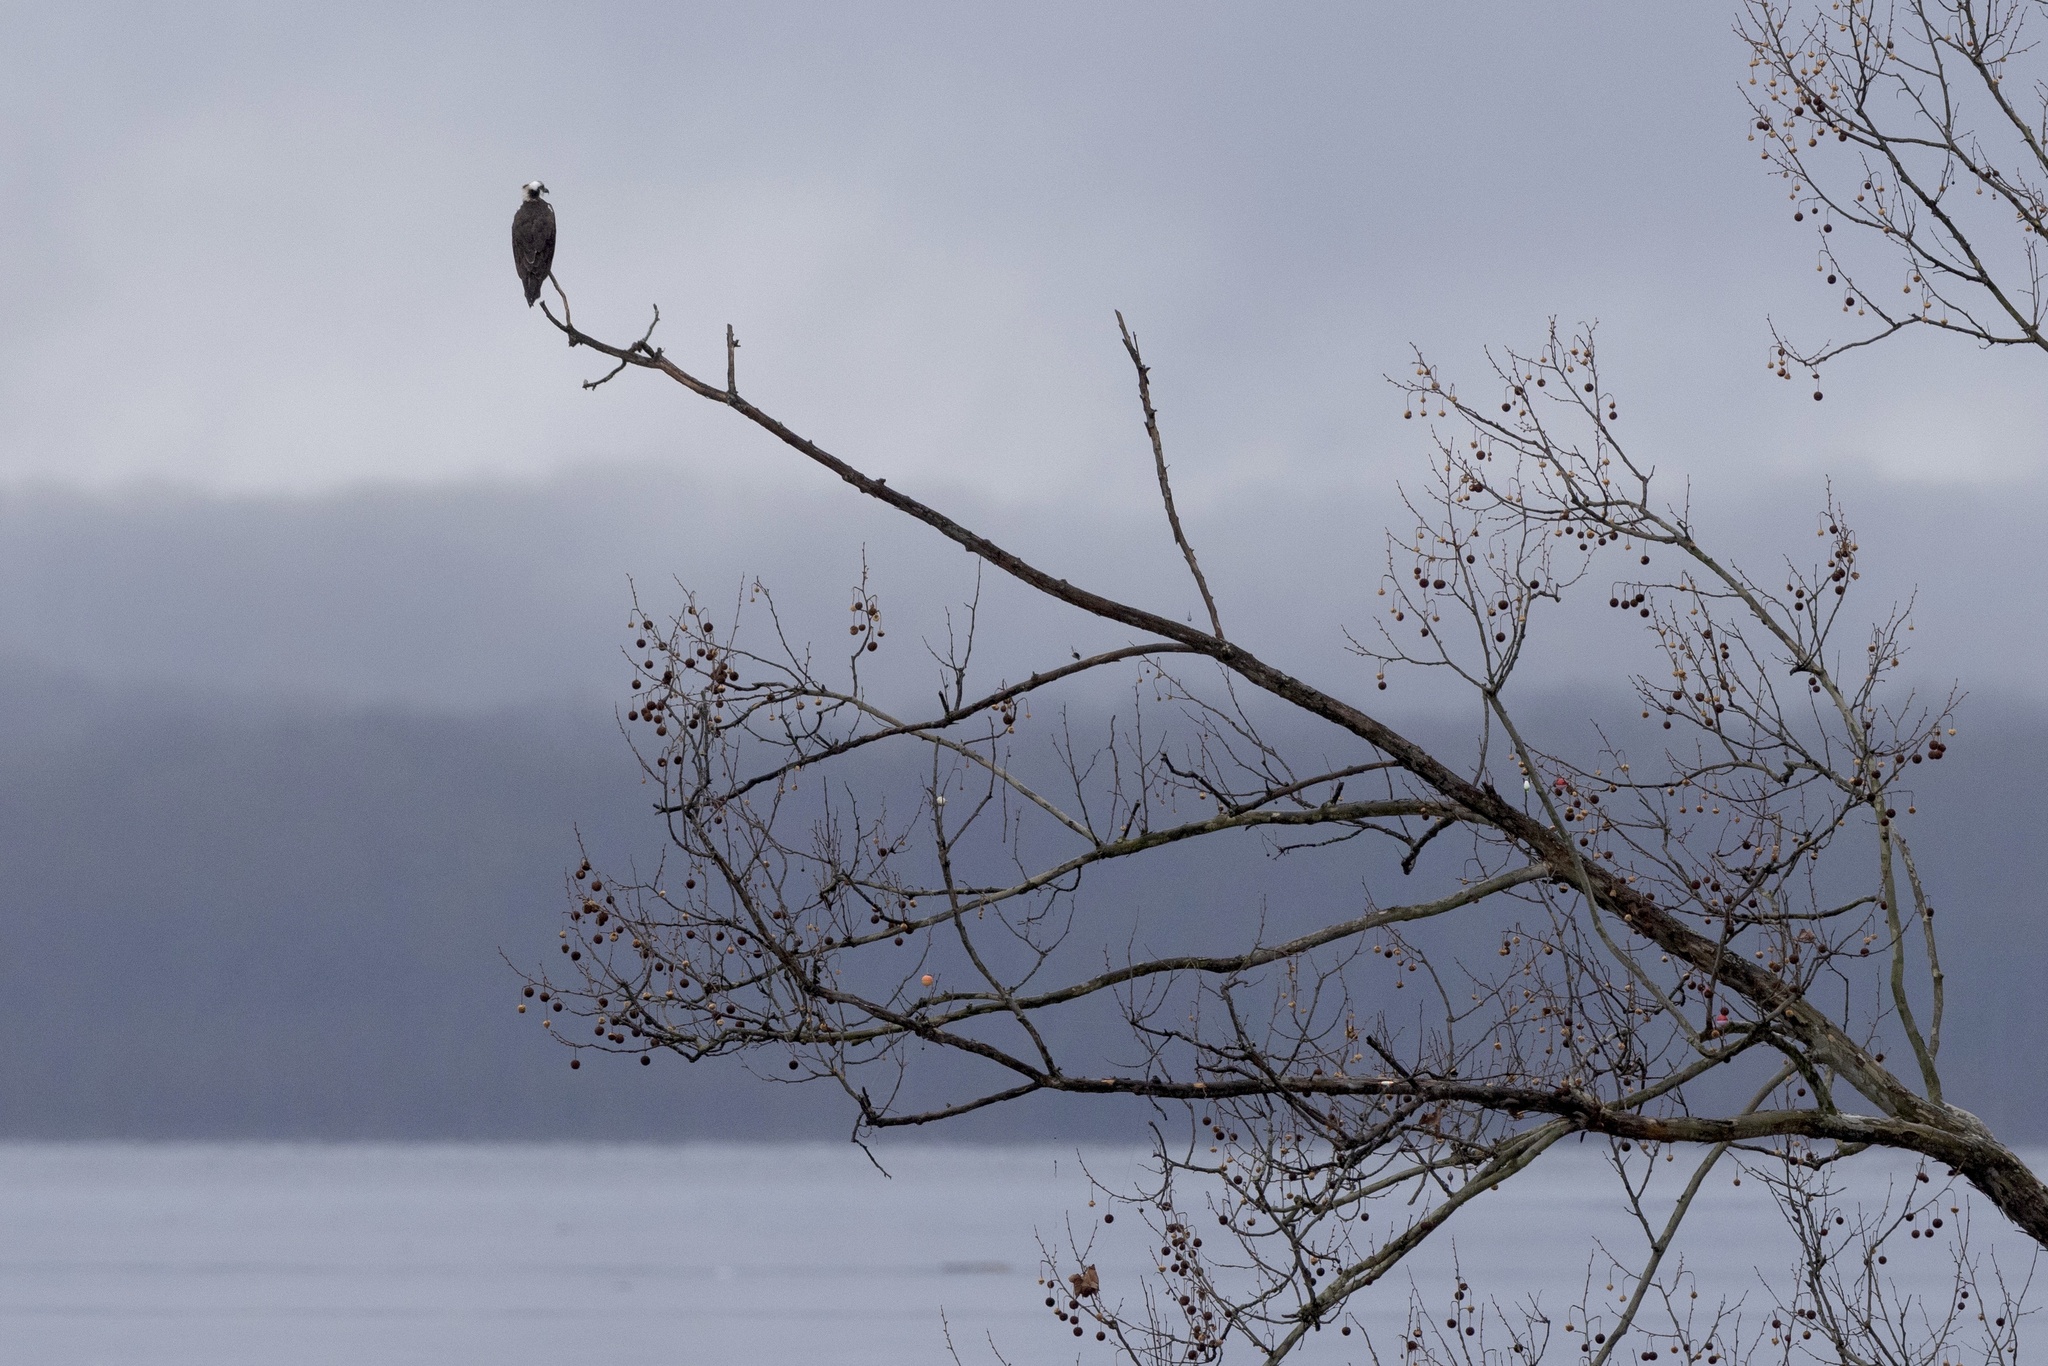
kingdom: Animalia
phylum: Chordata
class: Aves
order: Accipitriformes
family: Pandionidae
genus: Pandion
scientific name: Pandion haliaetus
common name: Osprey
